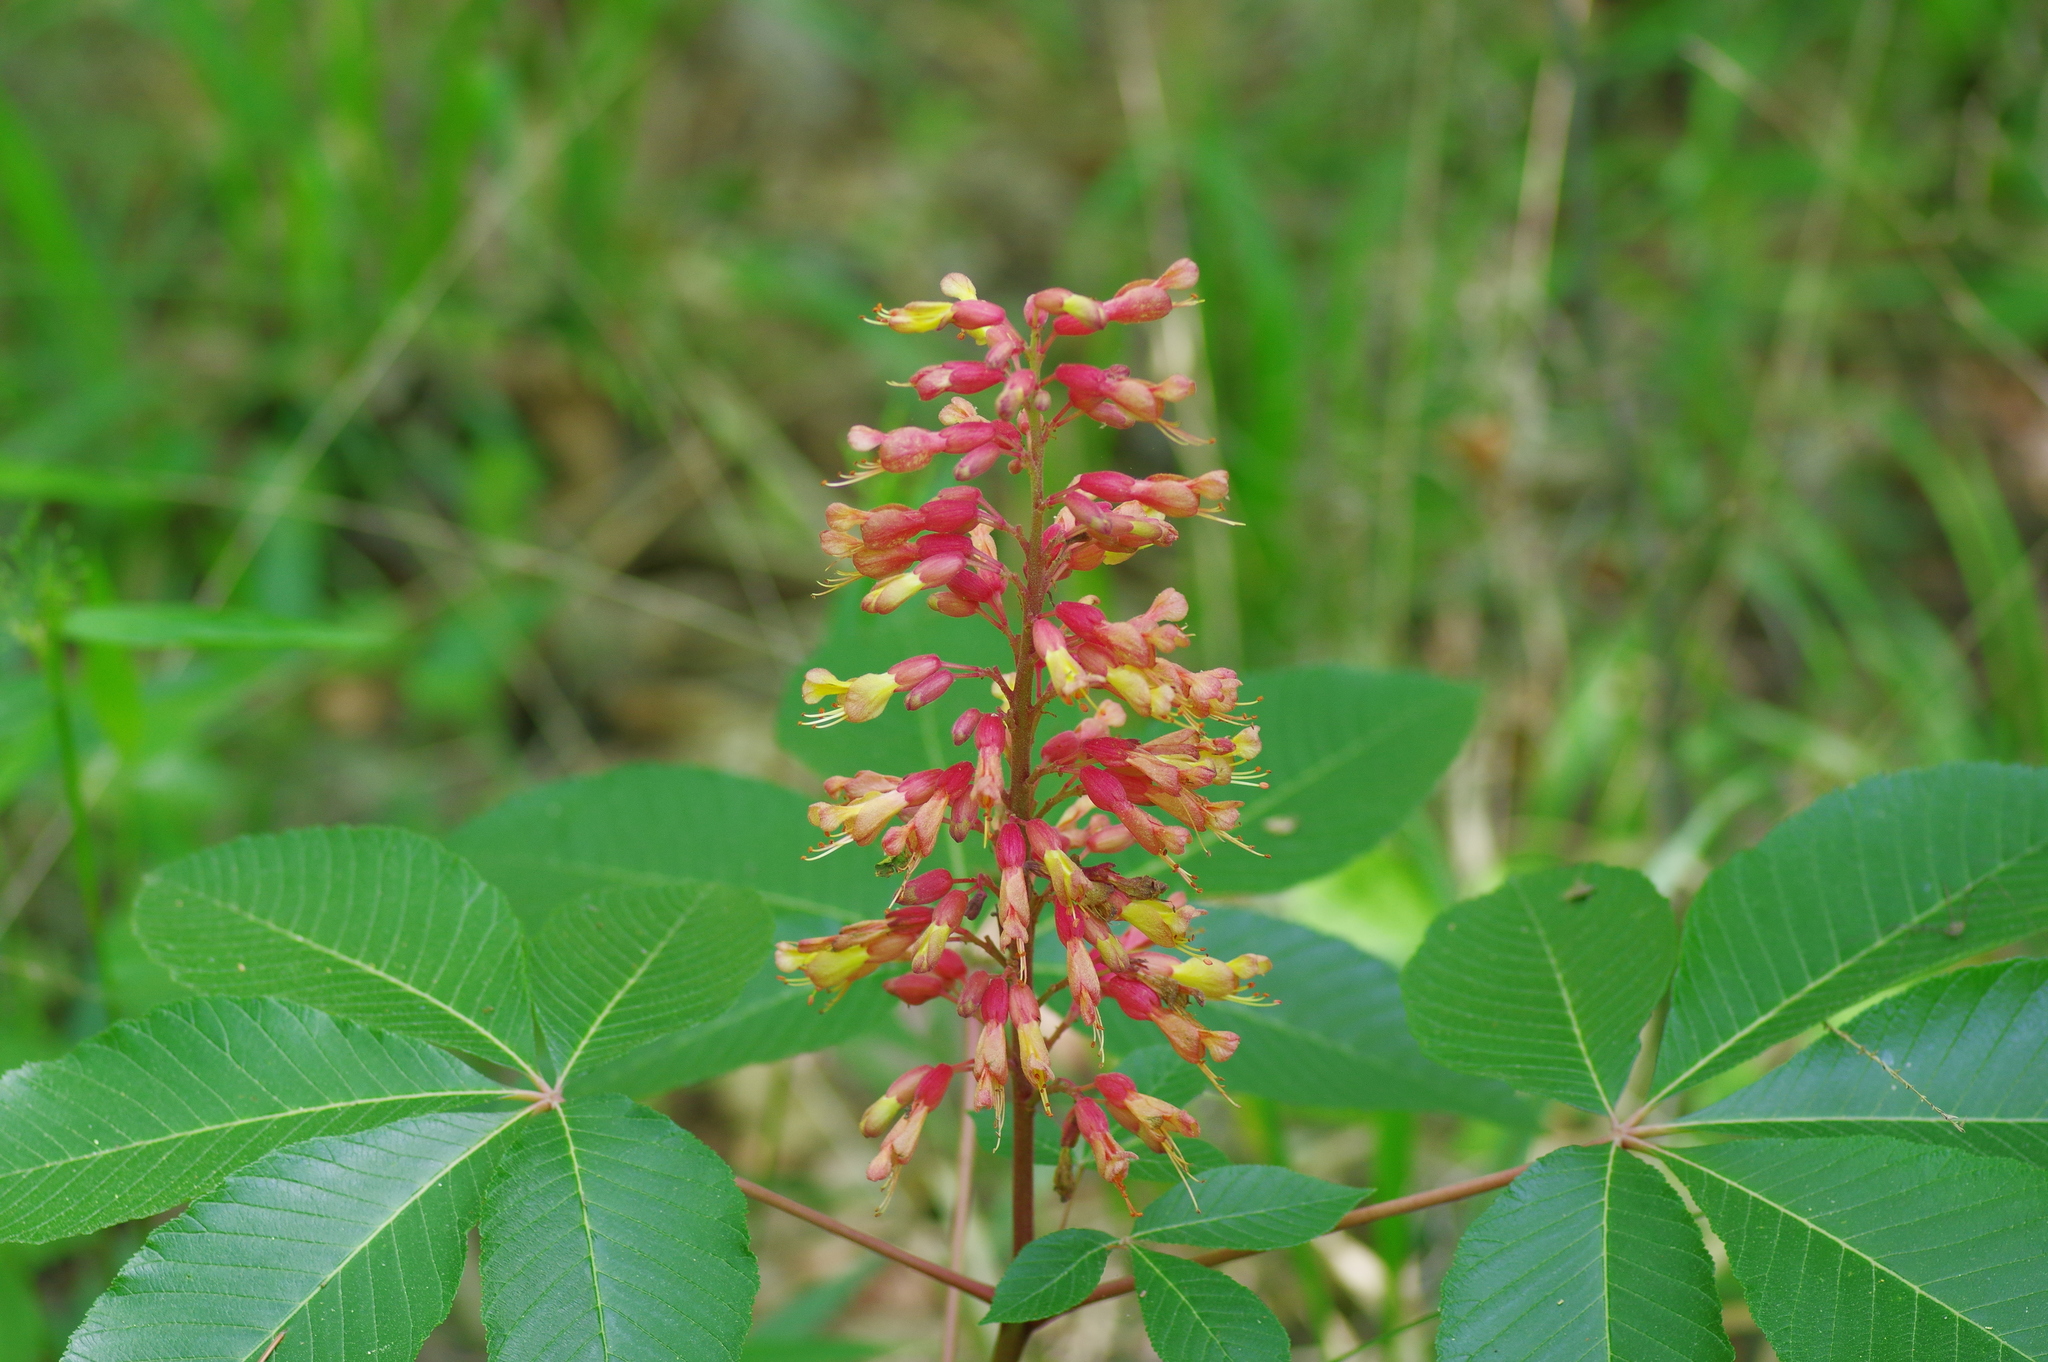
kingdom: Plantae
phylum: Tracheophyta
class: Magnoliopsida
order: Sapindales
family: Sapindaceae
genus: Aesculus
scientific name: Aesculus pavia
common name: Red buckeye
